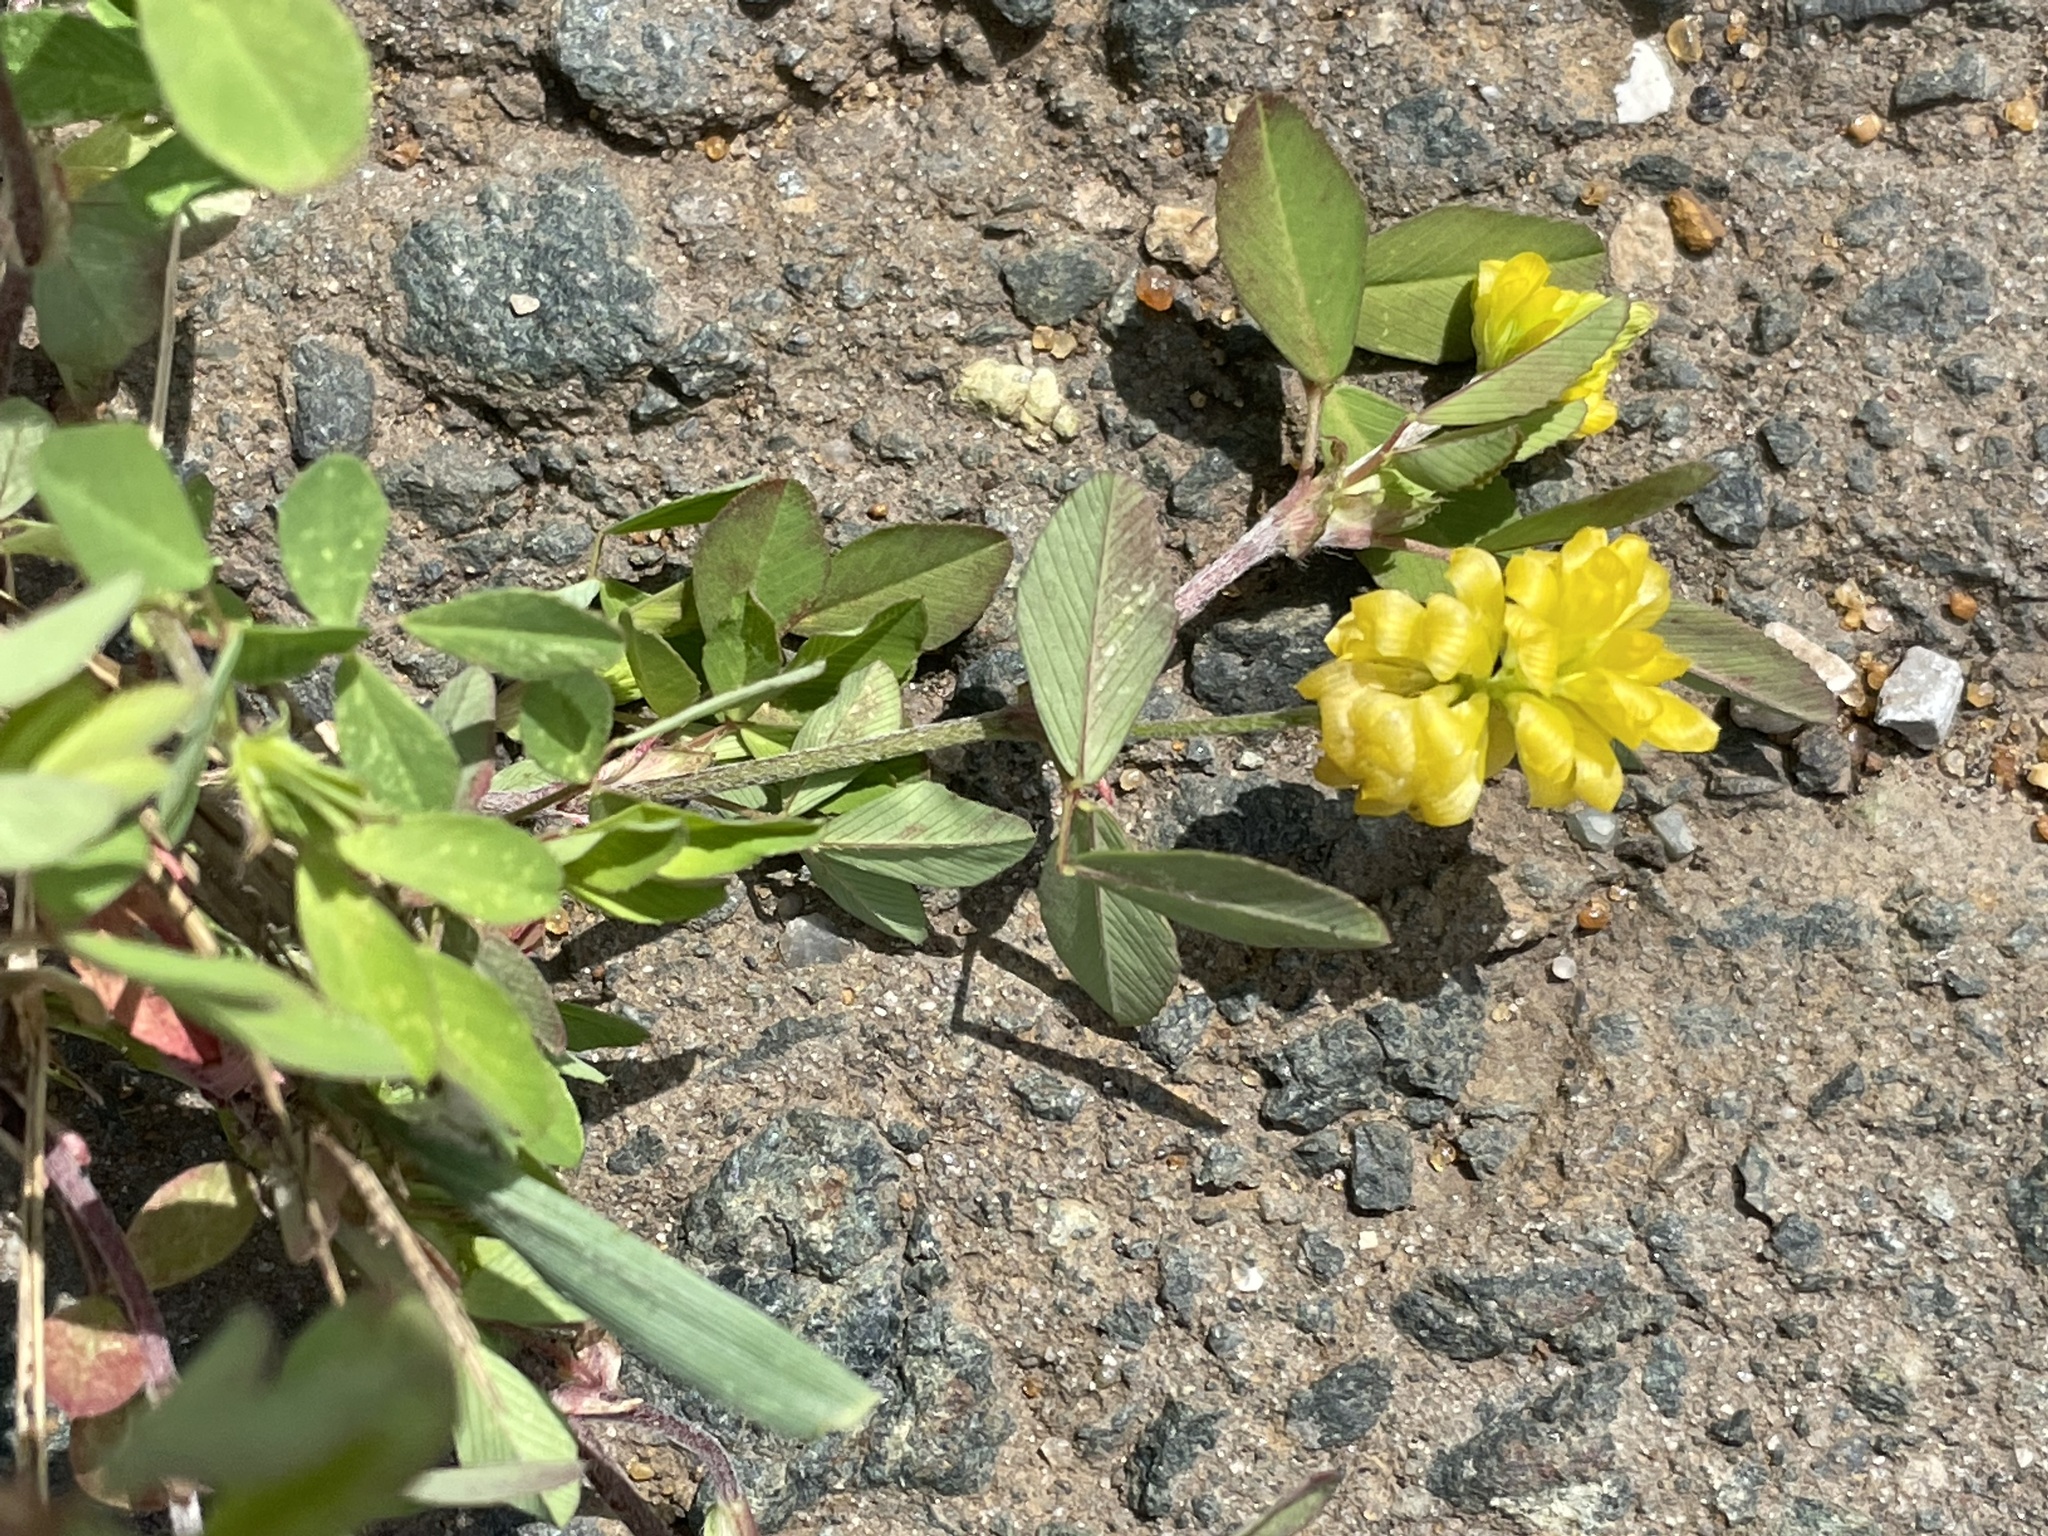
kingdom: Plantae
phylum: Tracheophyta
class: Magnoliopsida
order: Fabales
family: Fabaceae
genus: Trifolium
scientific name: Trifolium campestre
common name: Field clover
